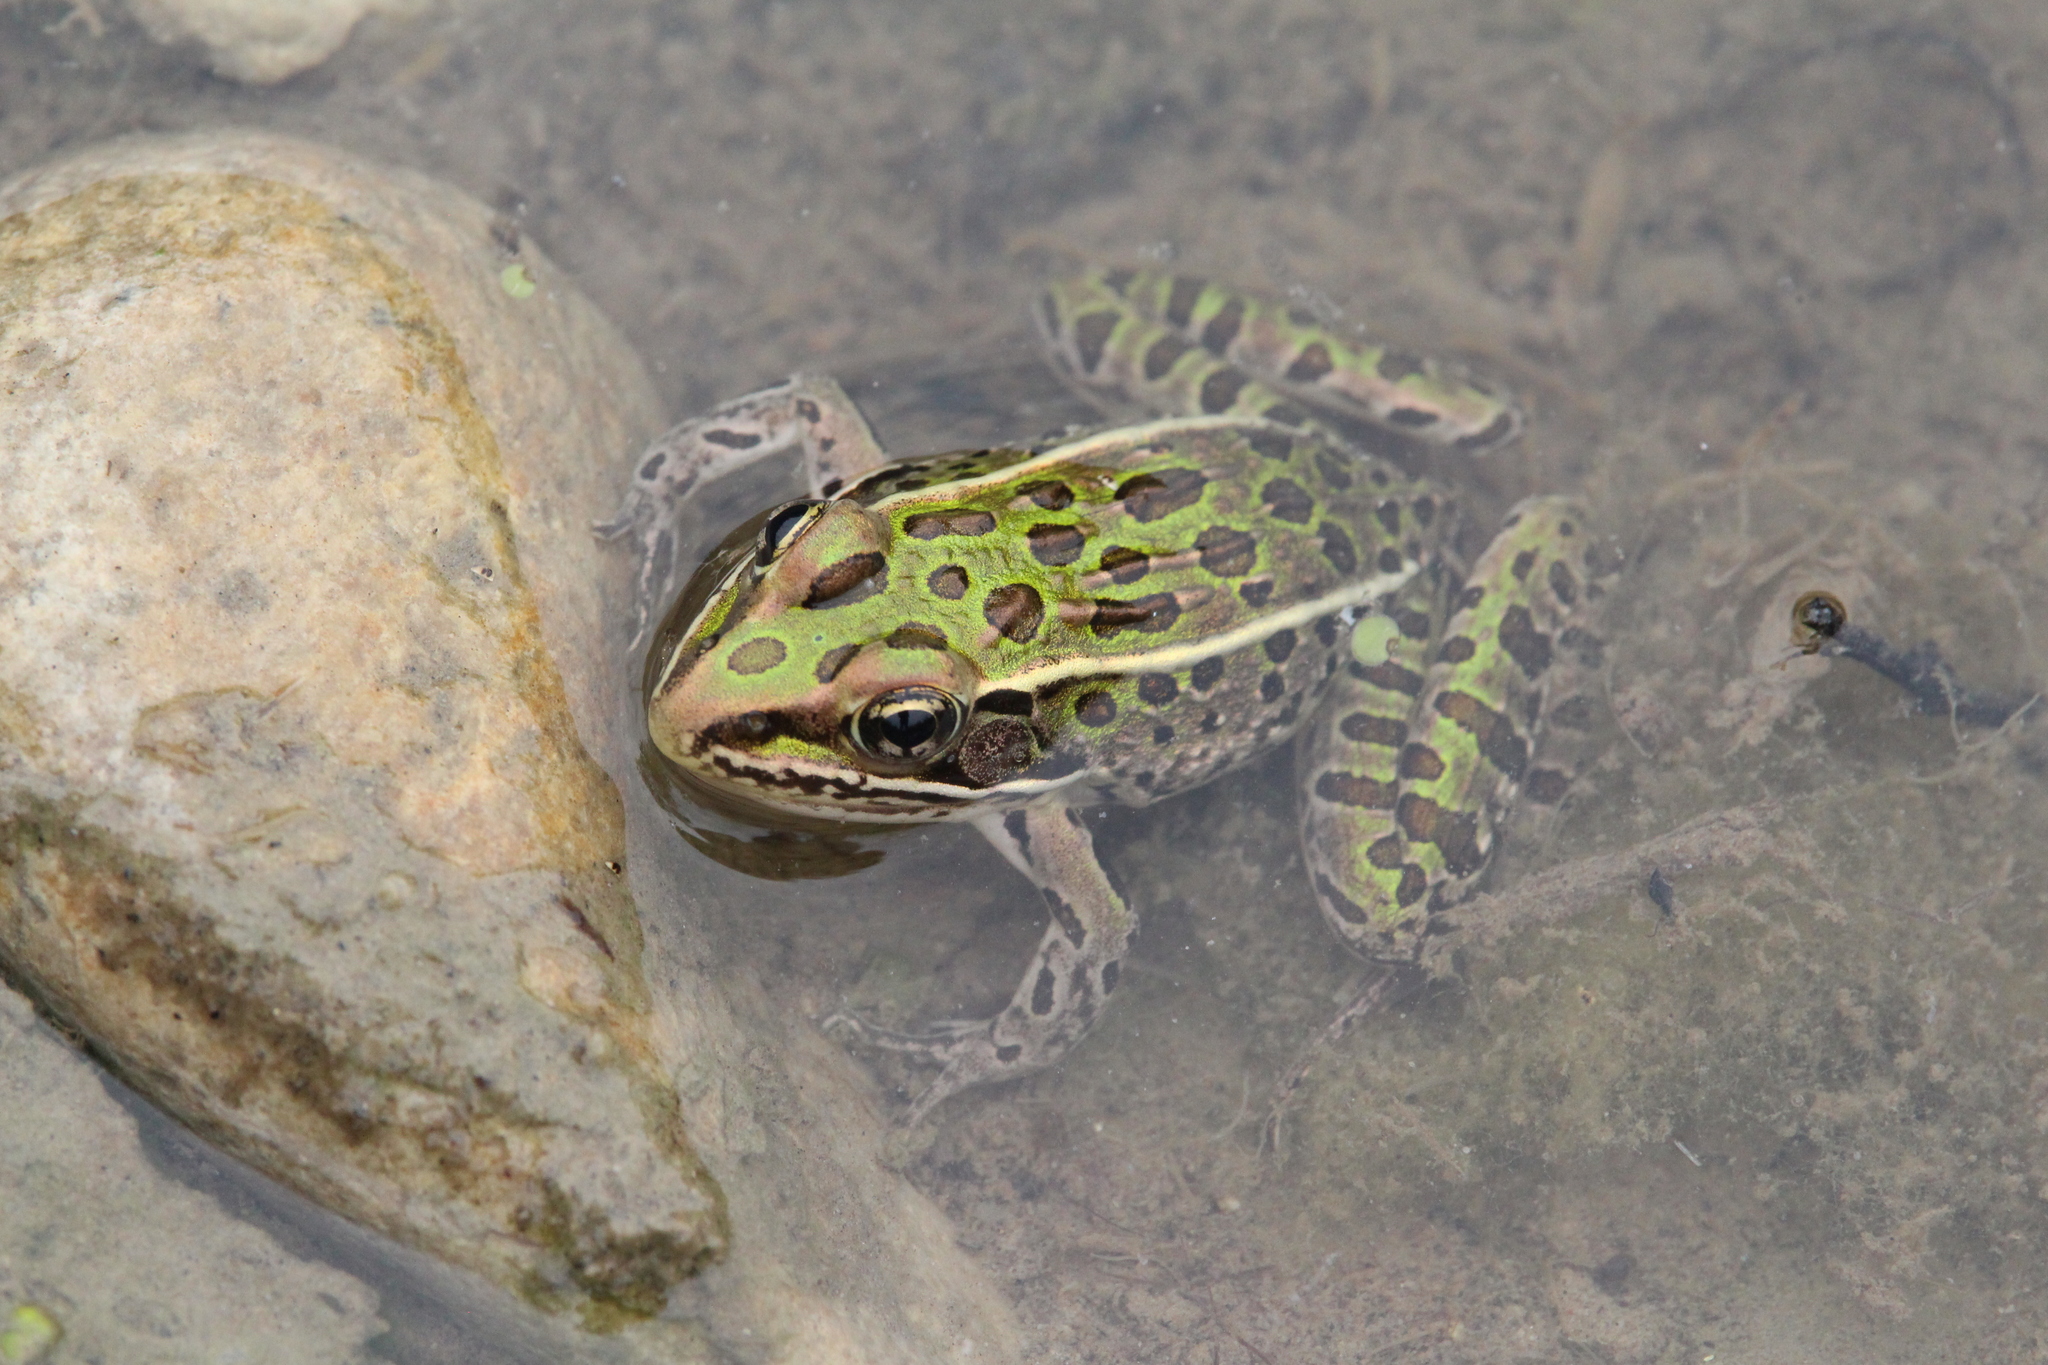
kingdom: Animalia
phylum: Chordata
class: Amphibia
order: Anura
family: Ranidae
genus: Lithobates
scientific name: Lithobates pipiens
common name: Northern leopard frog
